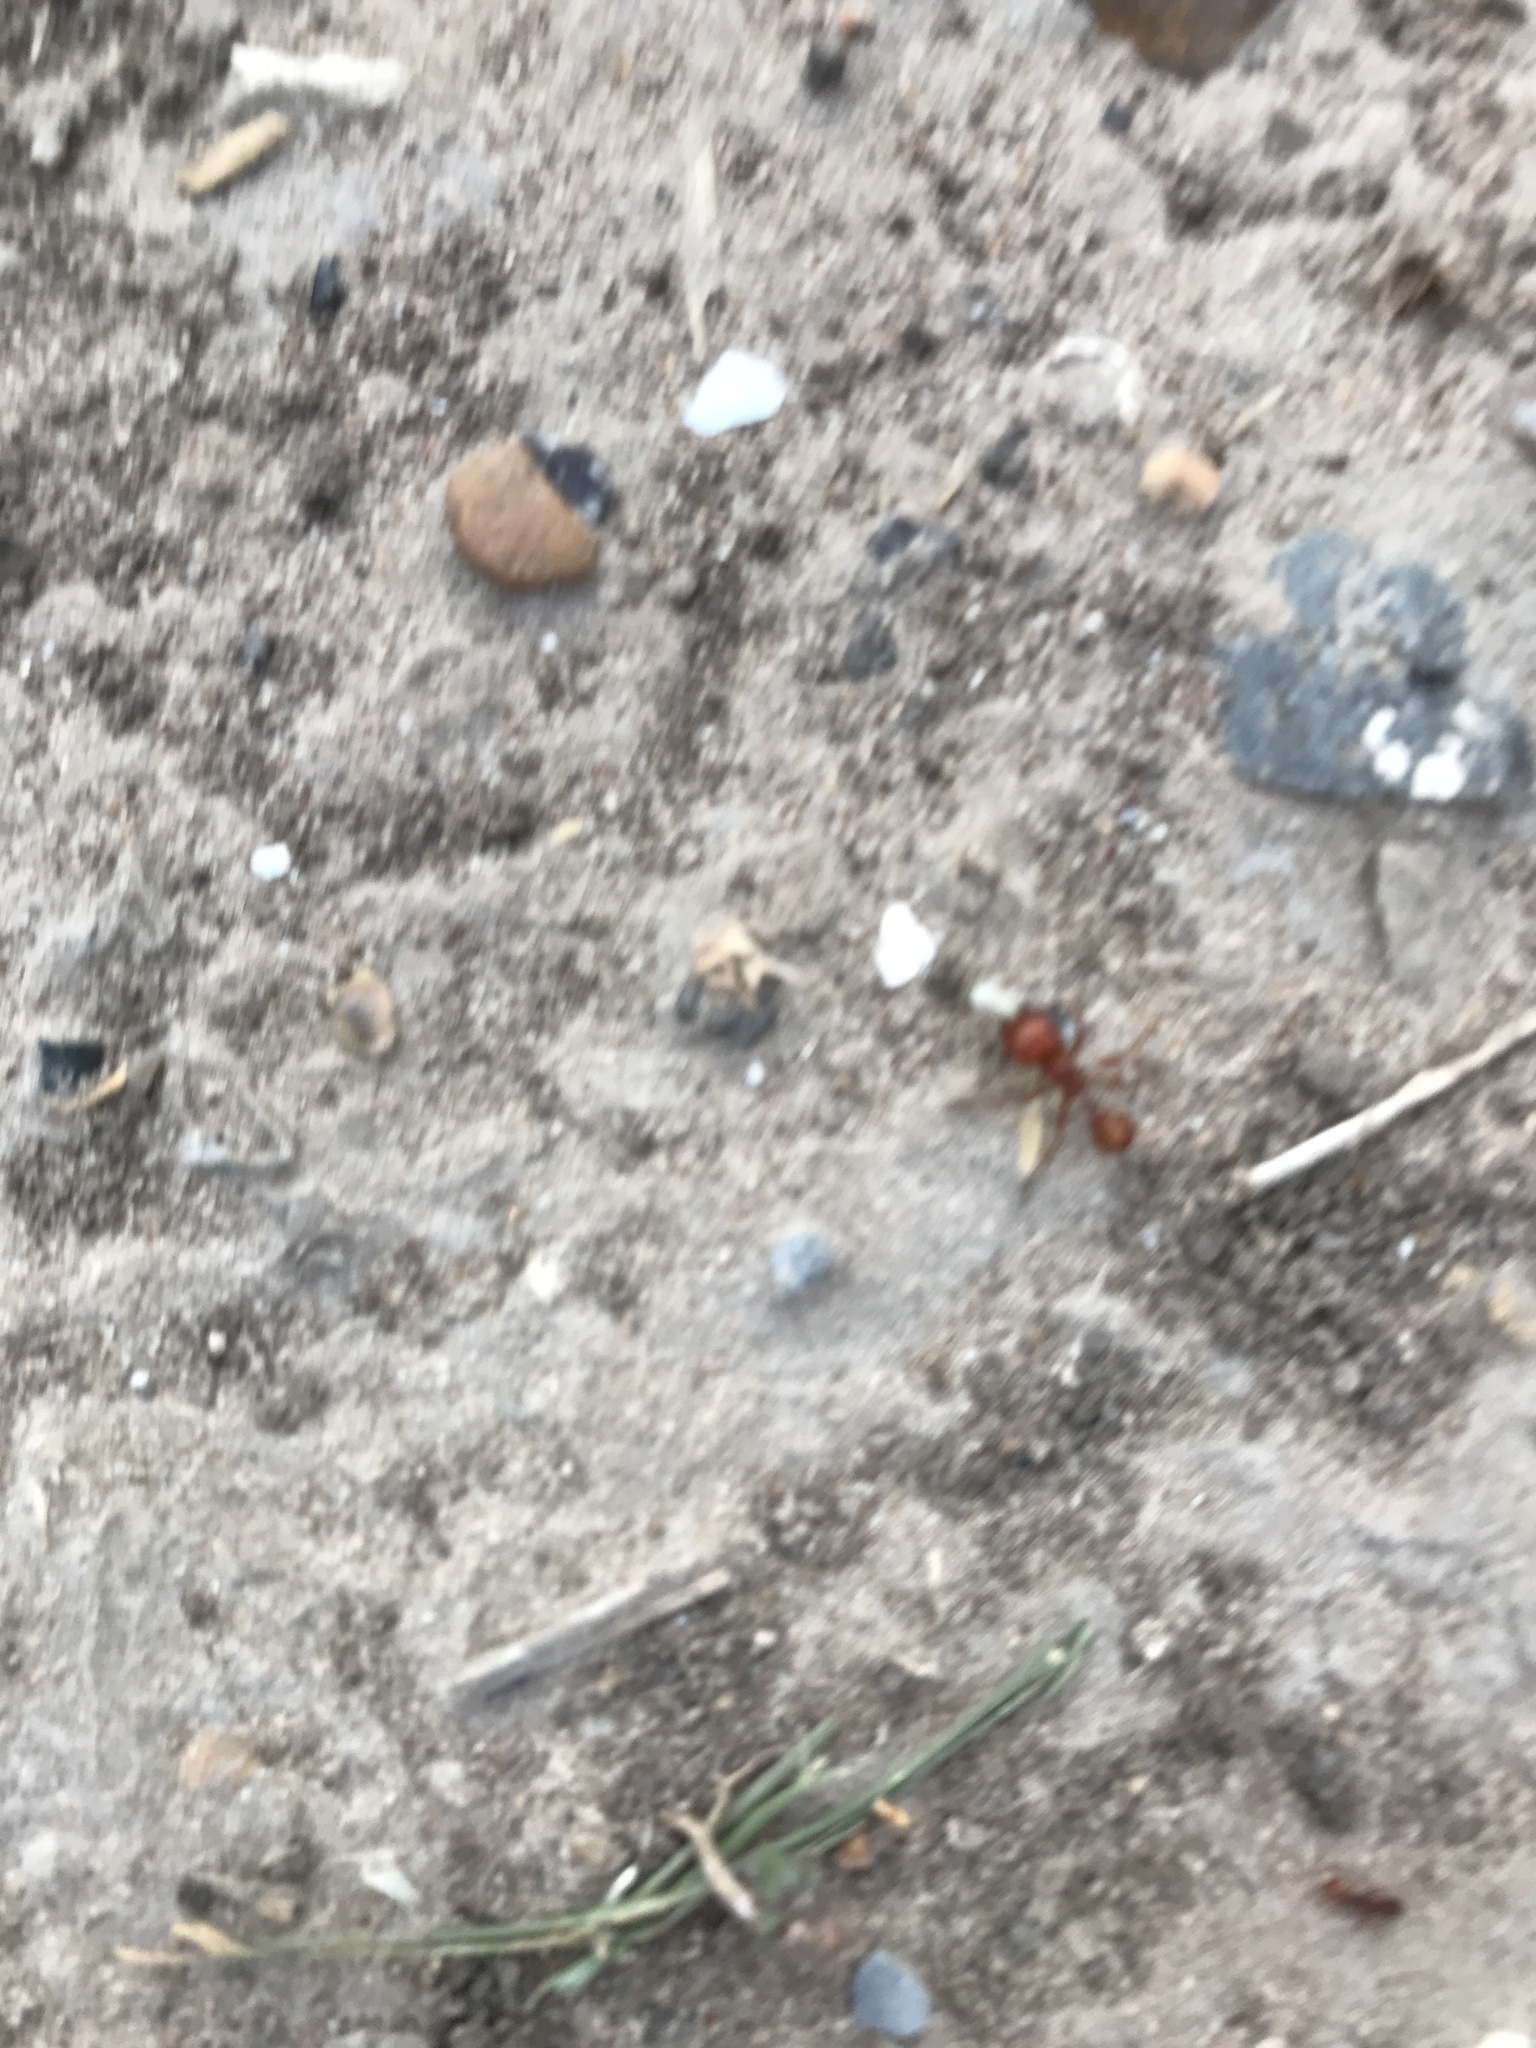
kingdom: Animalia
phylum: Arthropoda
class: Insecta
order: Hymenoptera
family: Formicidae
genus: Pogonomyrmex
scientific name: Pogonomyrmex barbatus
